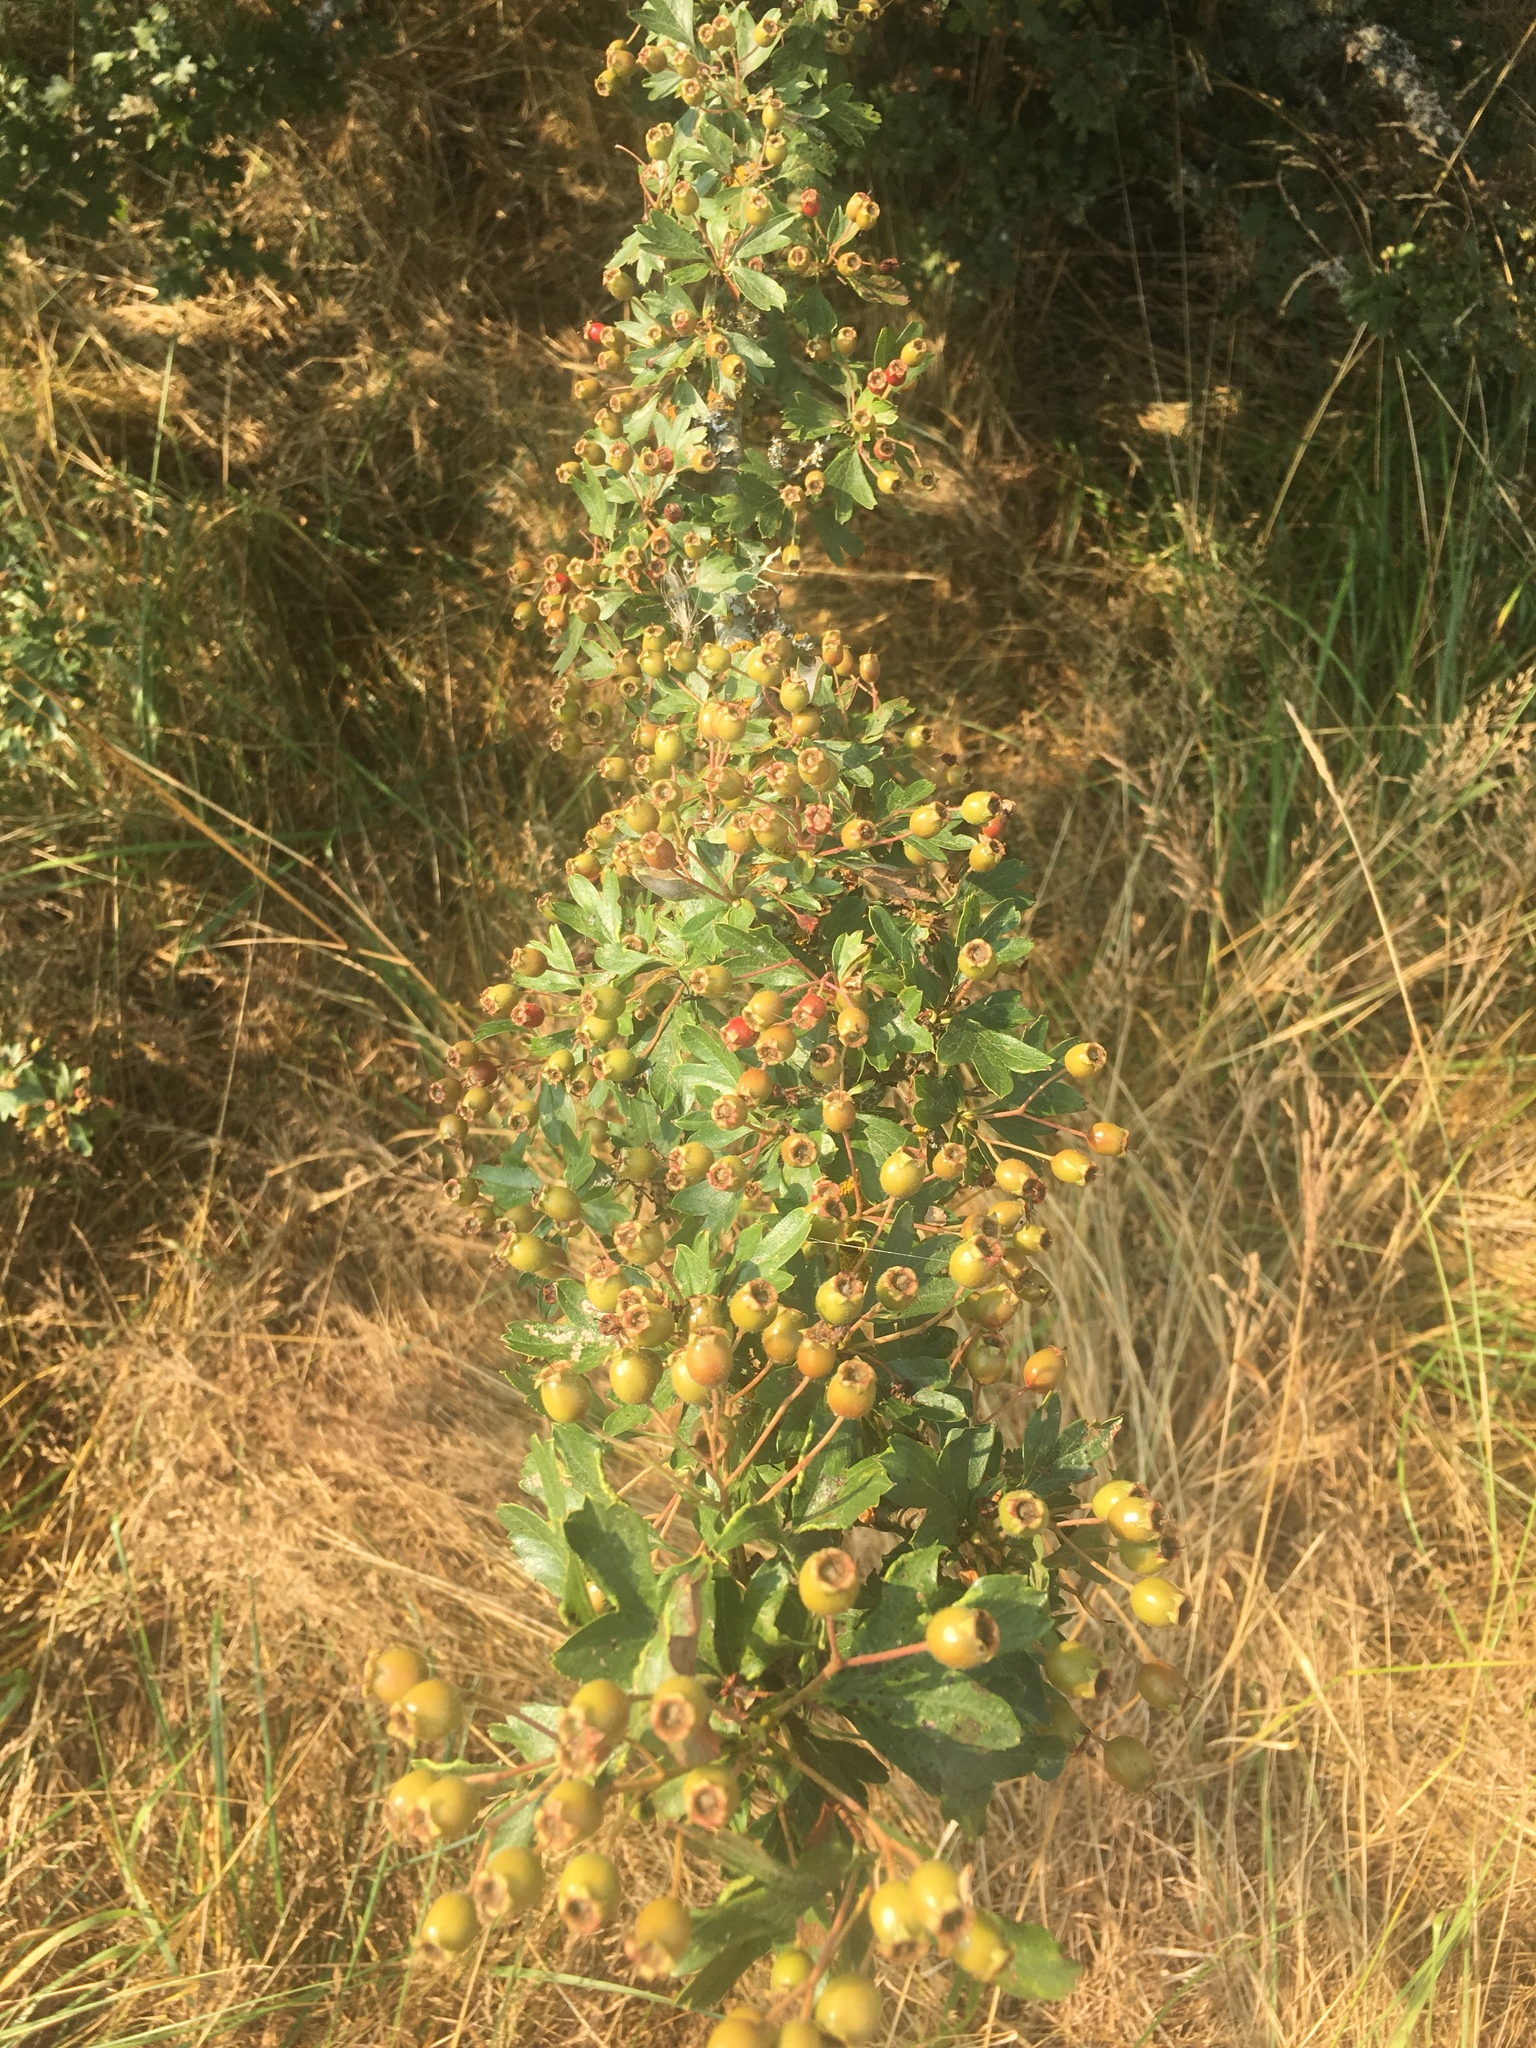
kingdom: Plantae
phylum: Tracheophyta
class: Magnoliopsida
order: Rosales
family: Rosaceae
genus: Crataegus
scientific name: Crataegus monogyna
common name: Hawthorn
